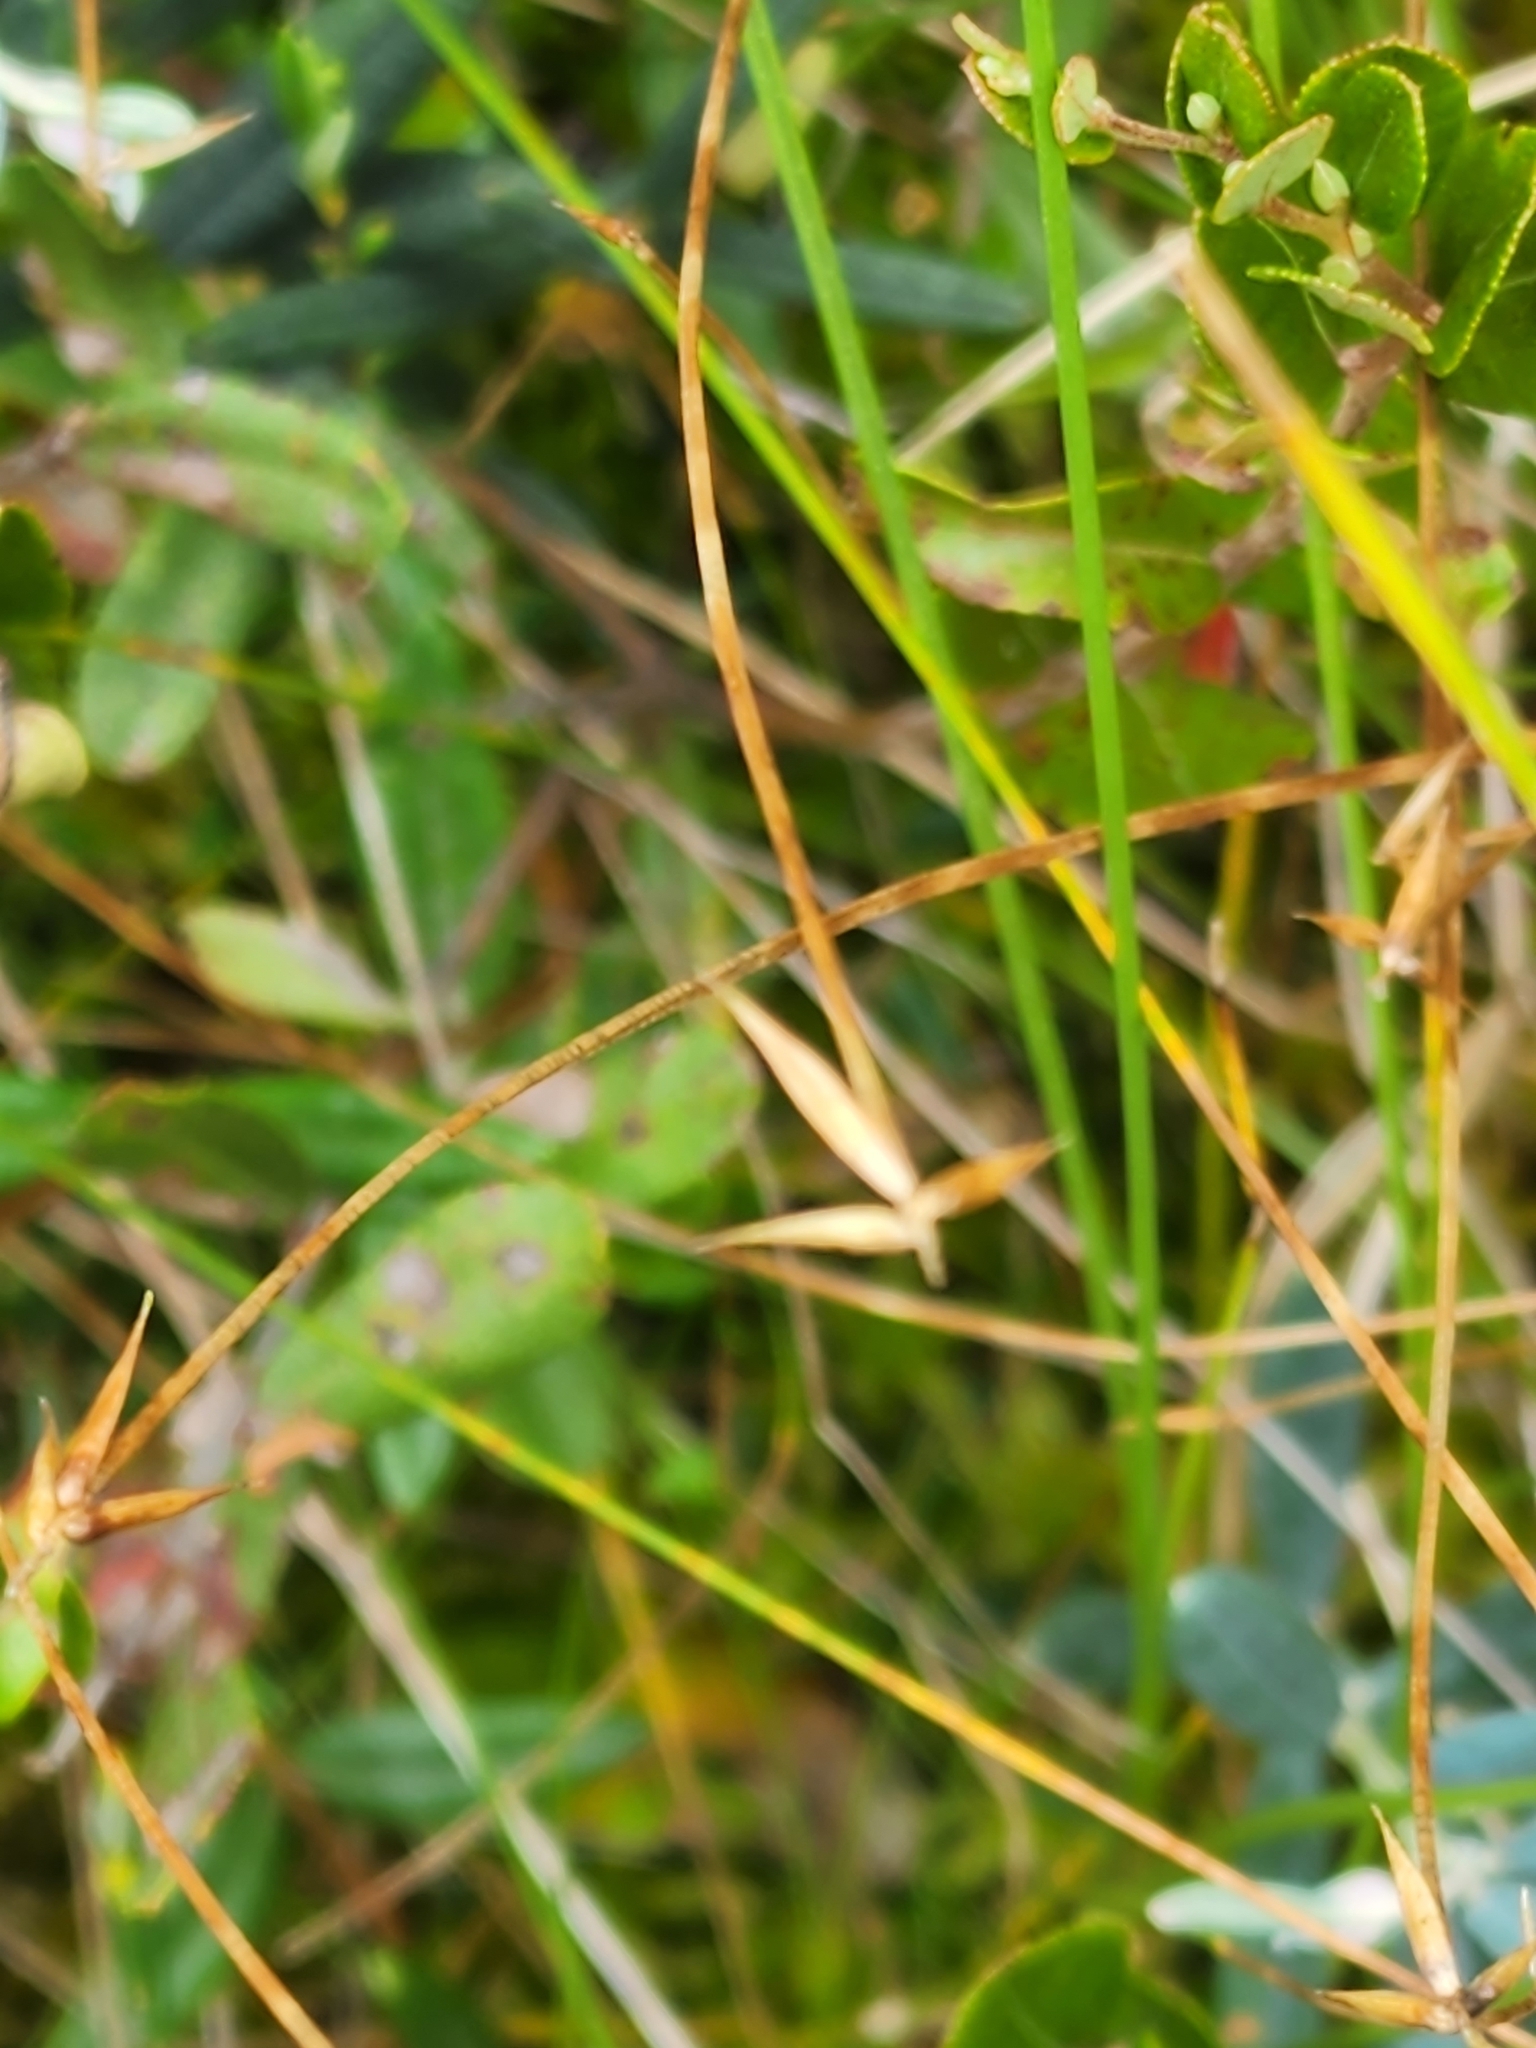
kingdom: Plantae
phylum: Tracheophyta
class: Liliopsida
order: Poales
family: Cyperaceae
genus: Carex
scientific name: Carex pauciflora
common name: Few-flowered sedge
